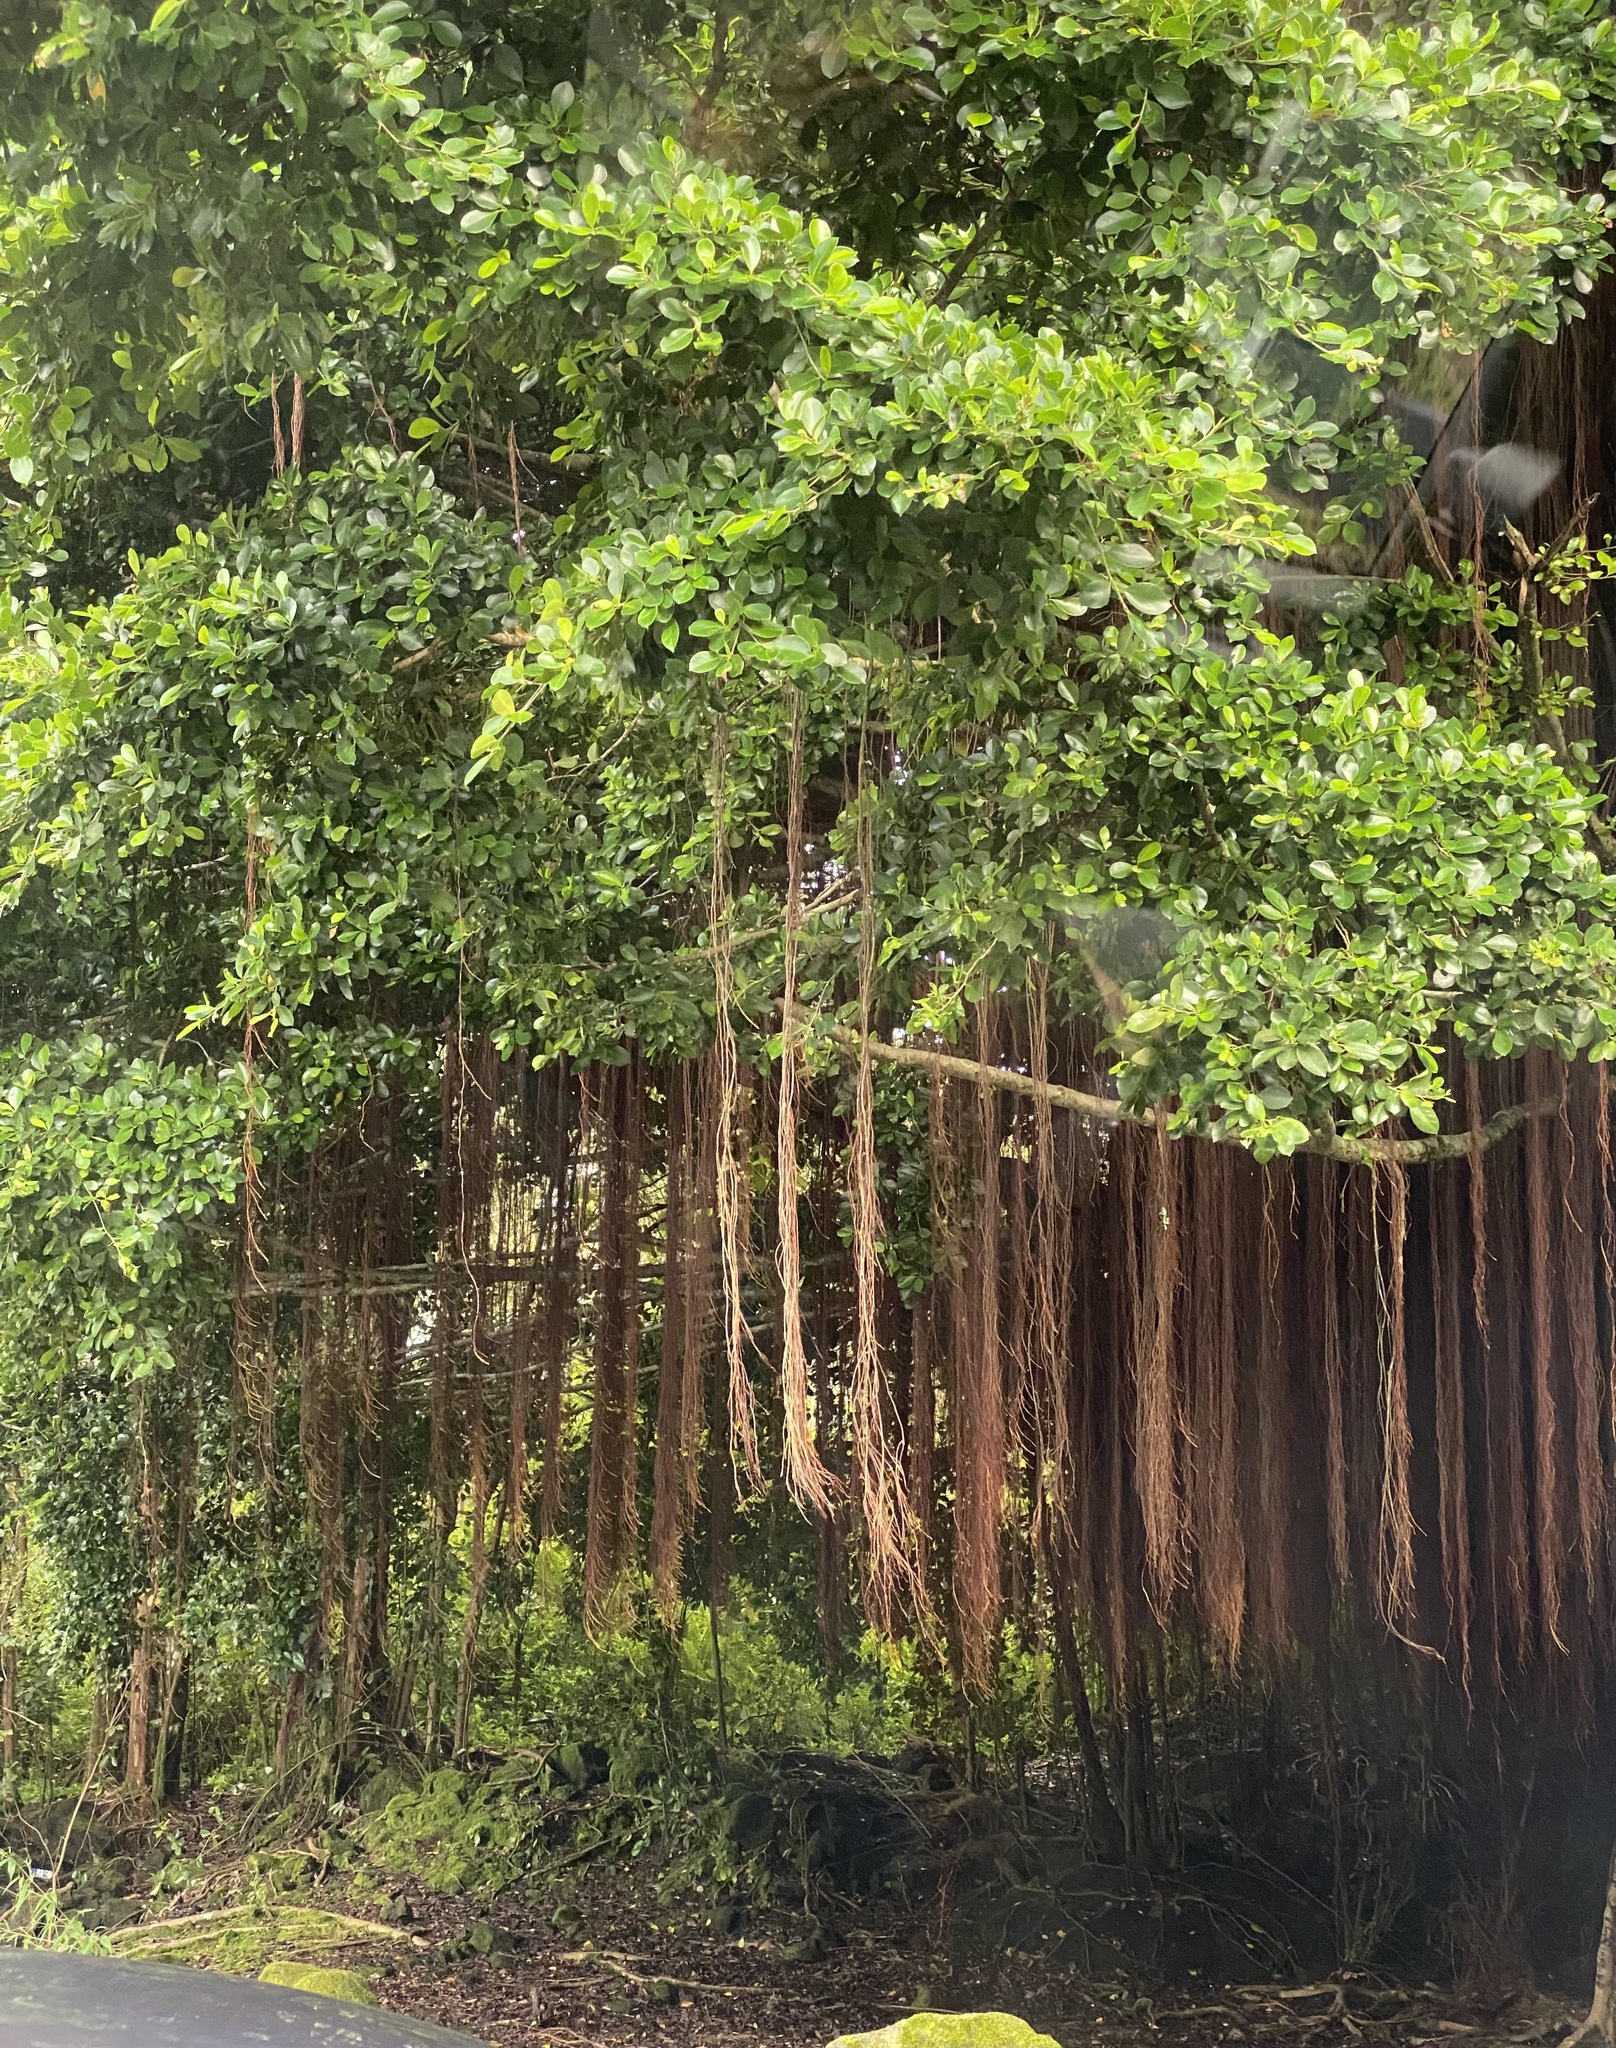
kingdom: Plantae
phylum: Tracheophyta
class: Magnoliopsida
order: Rosales
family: Moraceae
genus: Ficus
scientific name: Ficus microcarpa
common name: Chinese banyan
